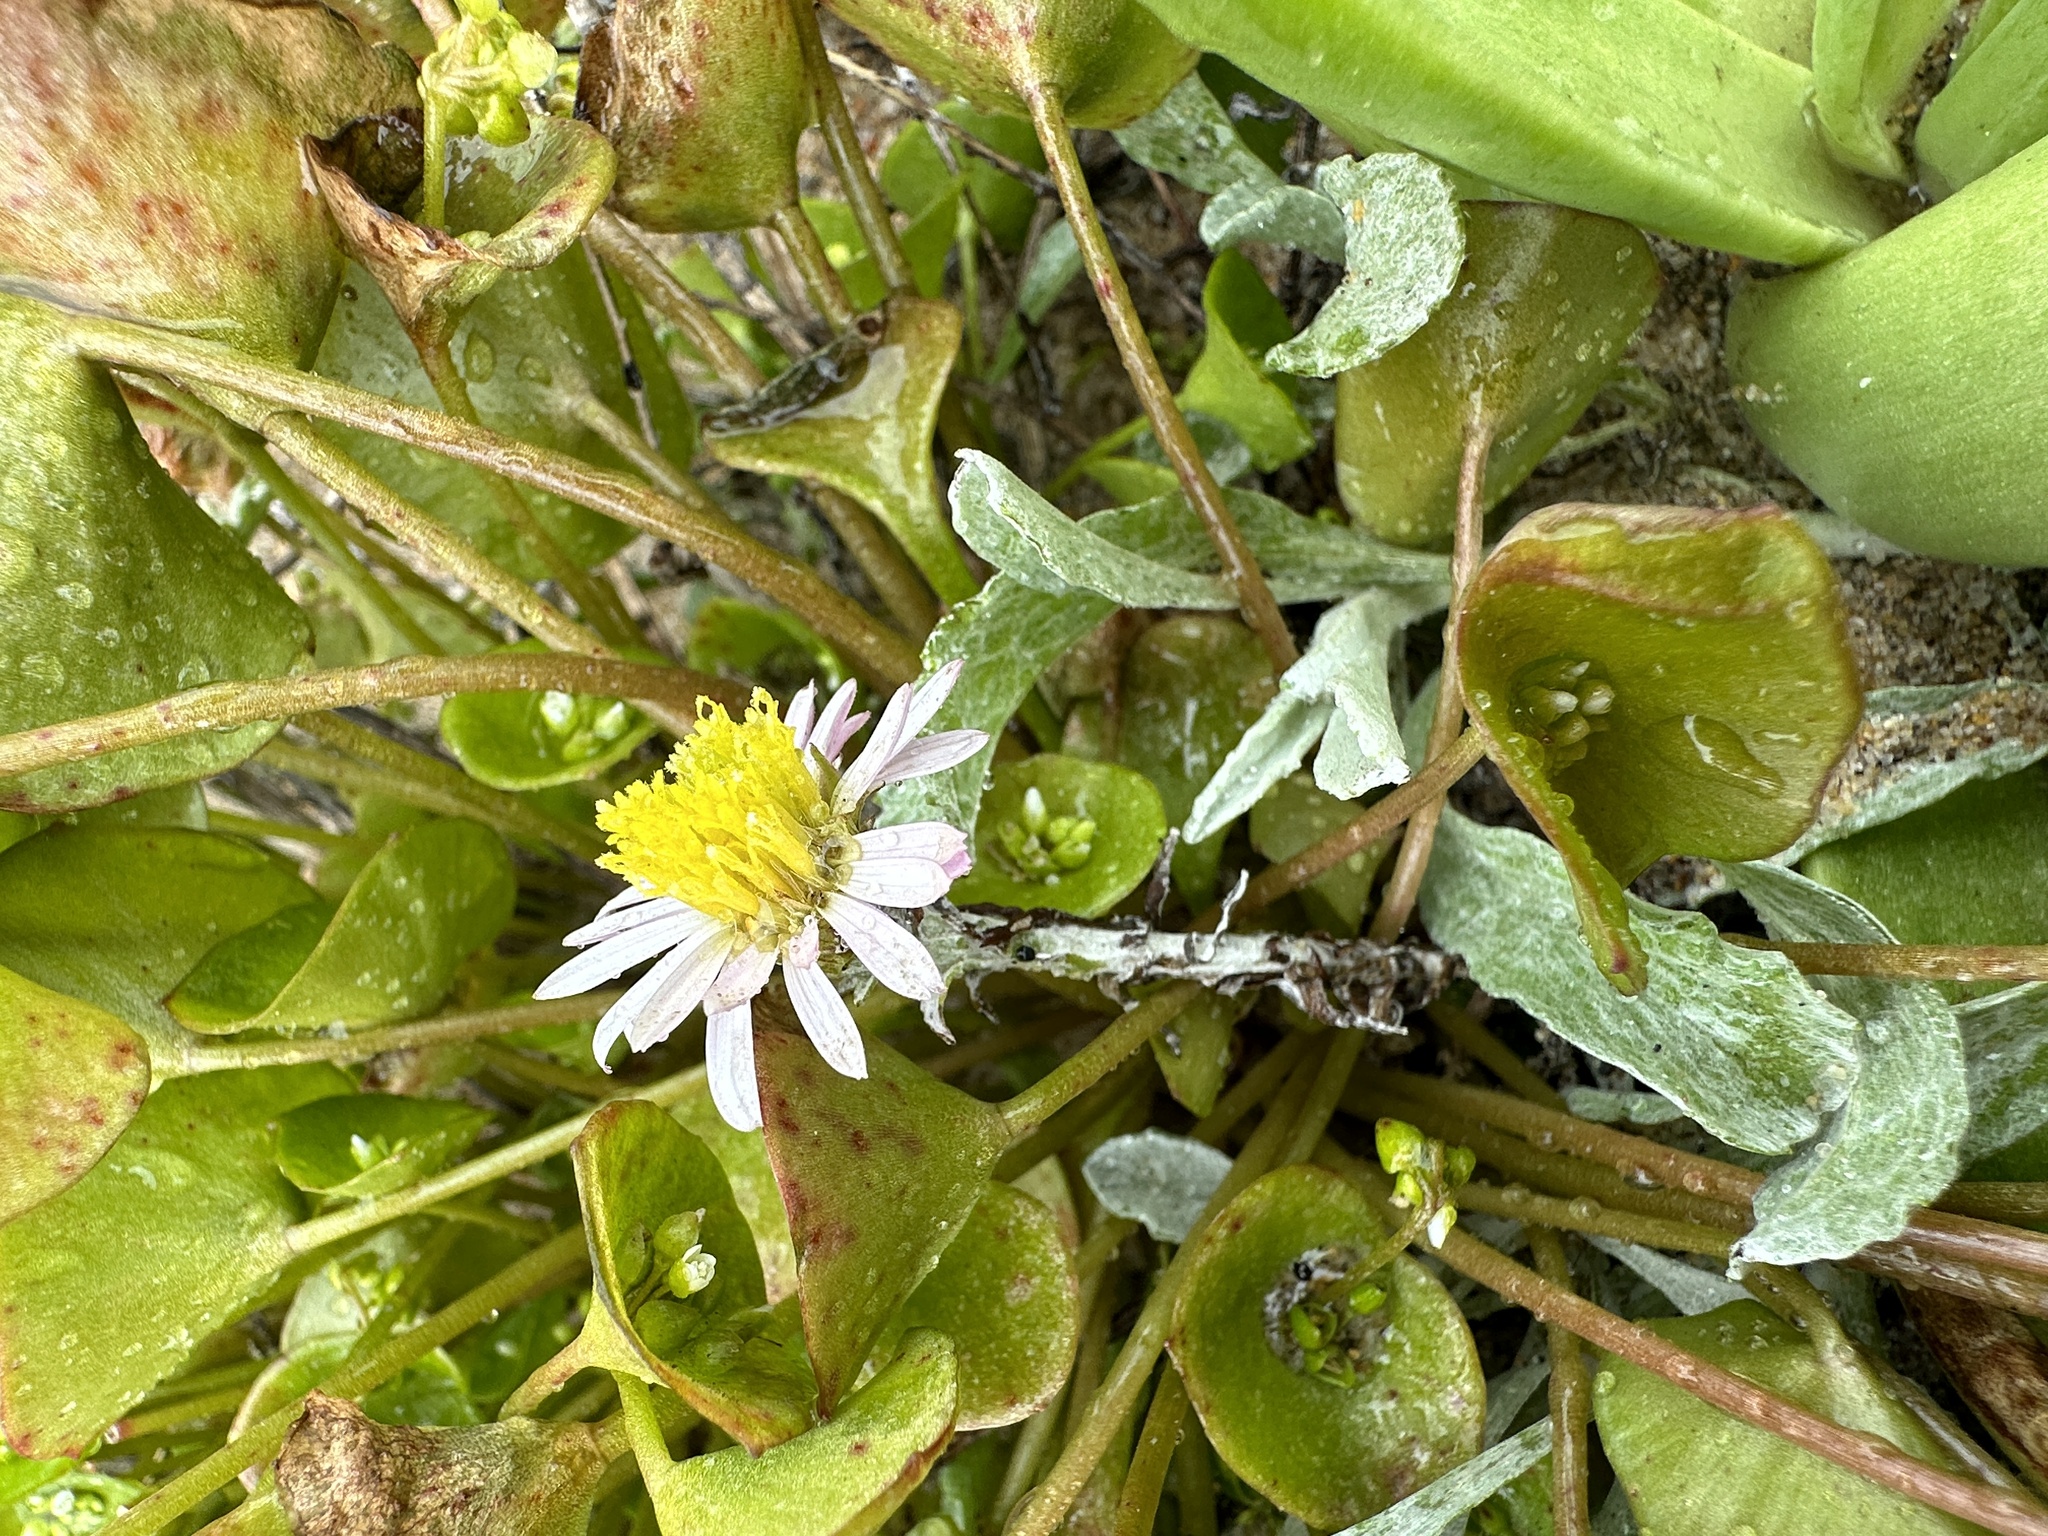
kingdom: Plantae
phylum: Tracheophyta
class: Magnoliopsida
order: Asterales
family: Asteraceae
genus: Corethrogyne
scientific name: Corethrogyne filaginifolia
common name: Sand-aster
